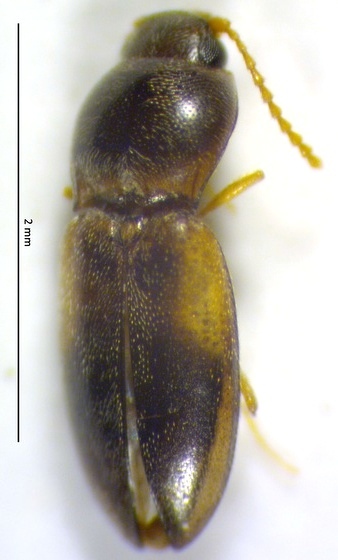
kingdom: Animalia
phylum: Arthropoda
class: Insecta
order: Coleoptera
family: Elateridae
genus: Paradonus
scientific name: Paradonus beckeri
